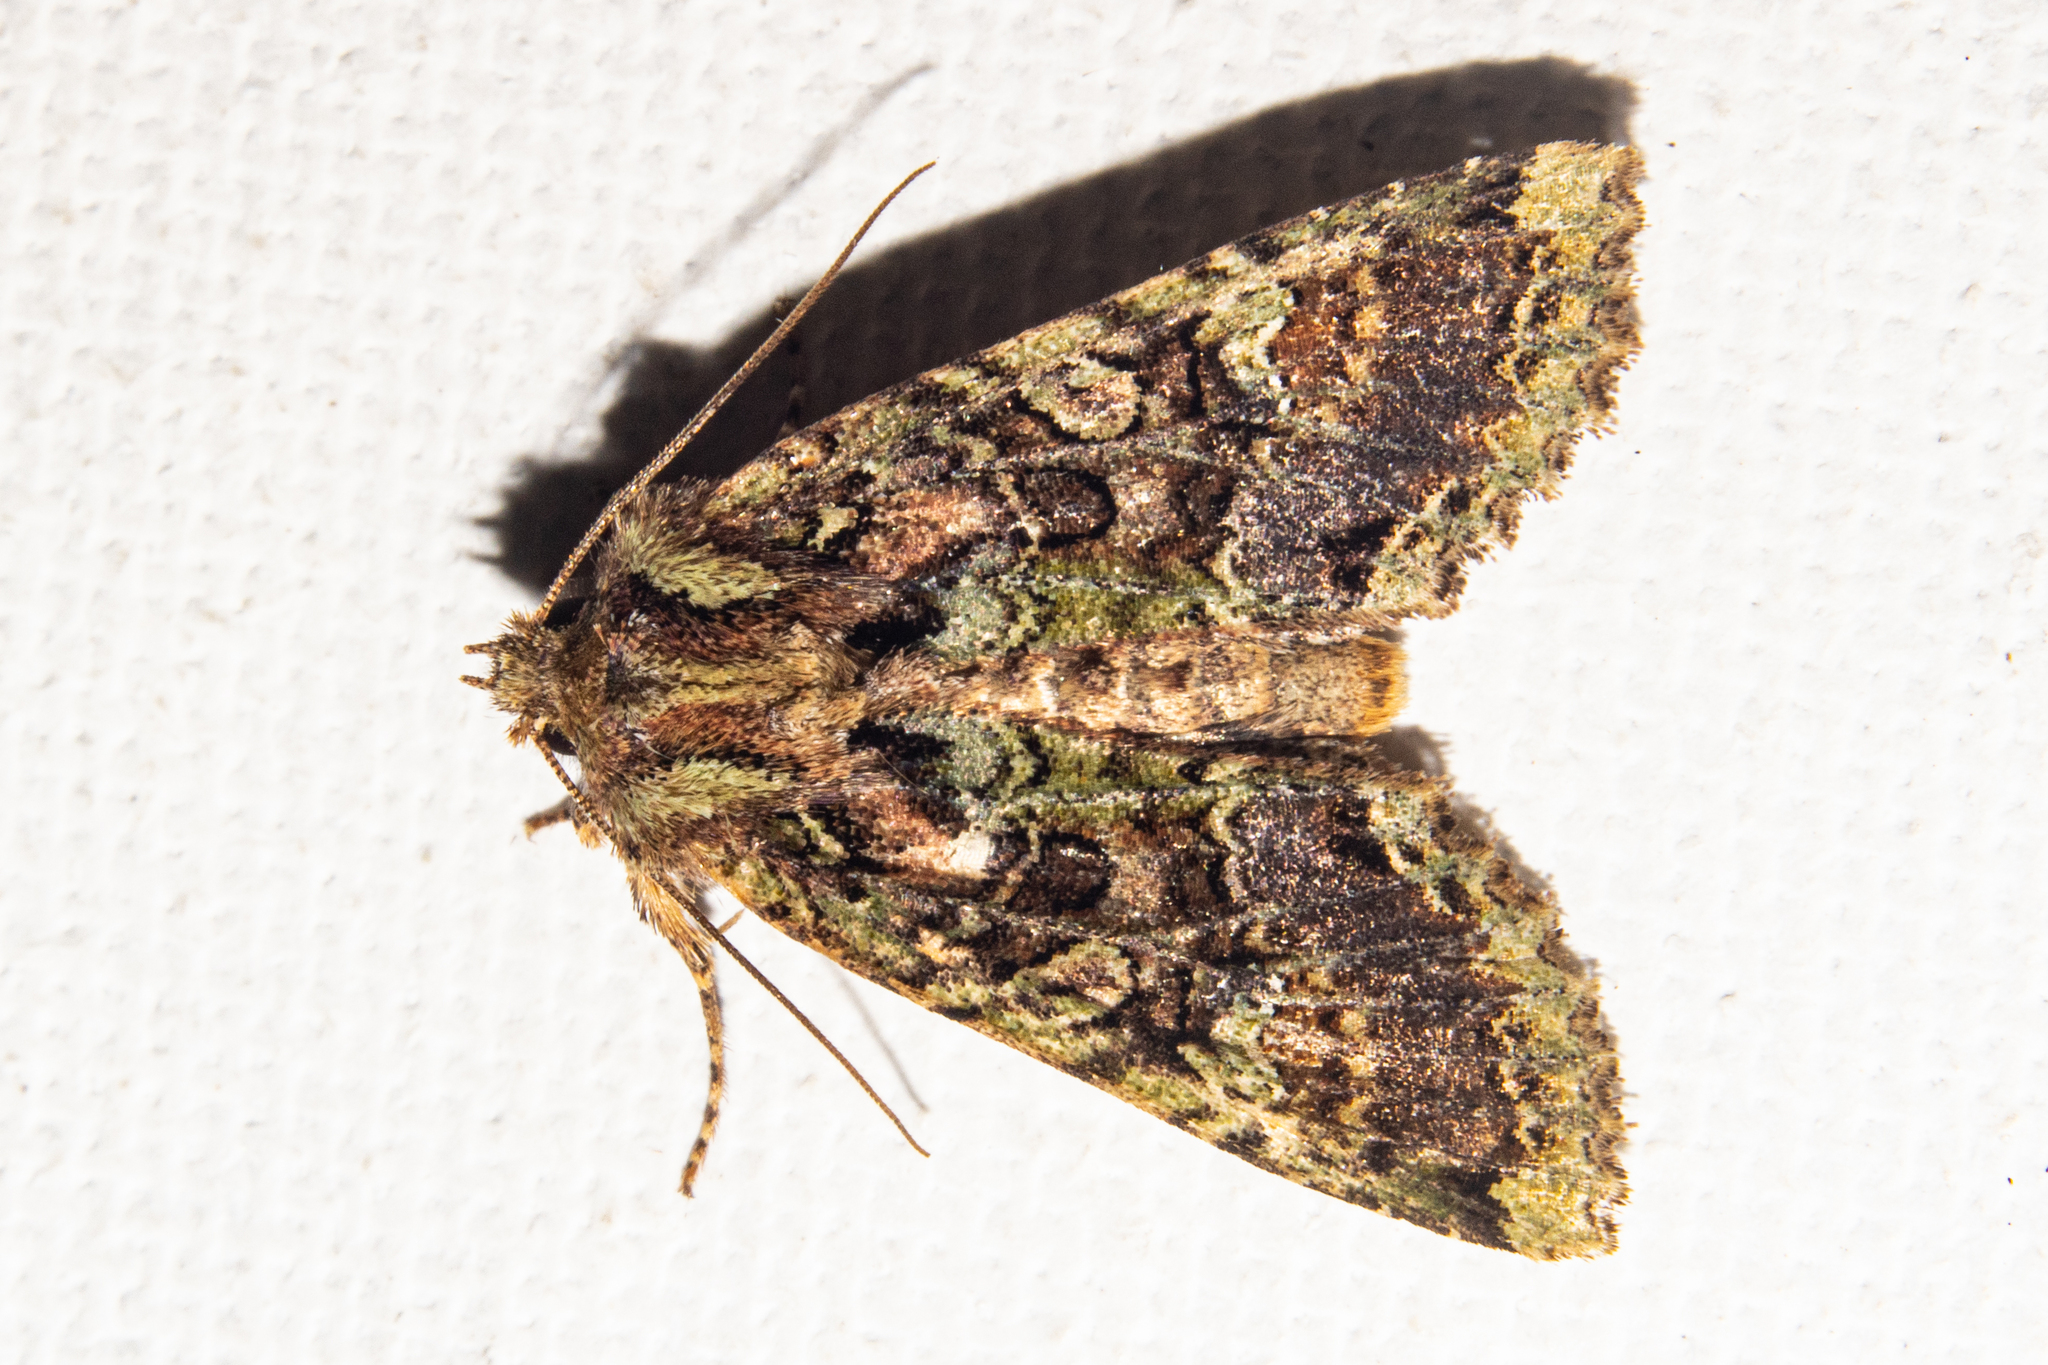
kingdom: Animalia
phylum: Arthropoda
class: Insecta
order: Lepidoptera
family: Noctuidae
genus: Meterana
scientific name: Meterana
